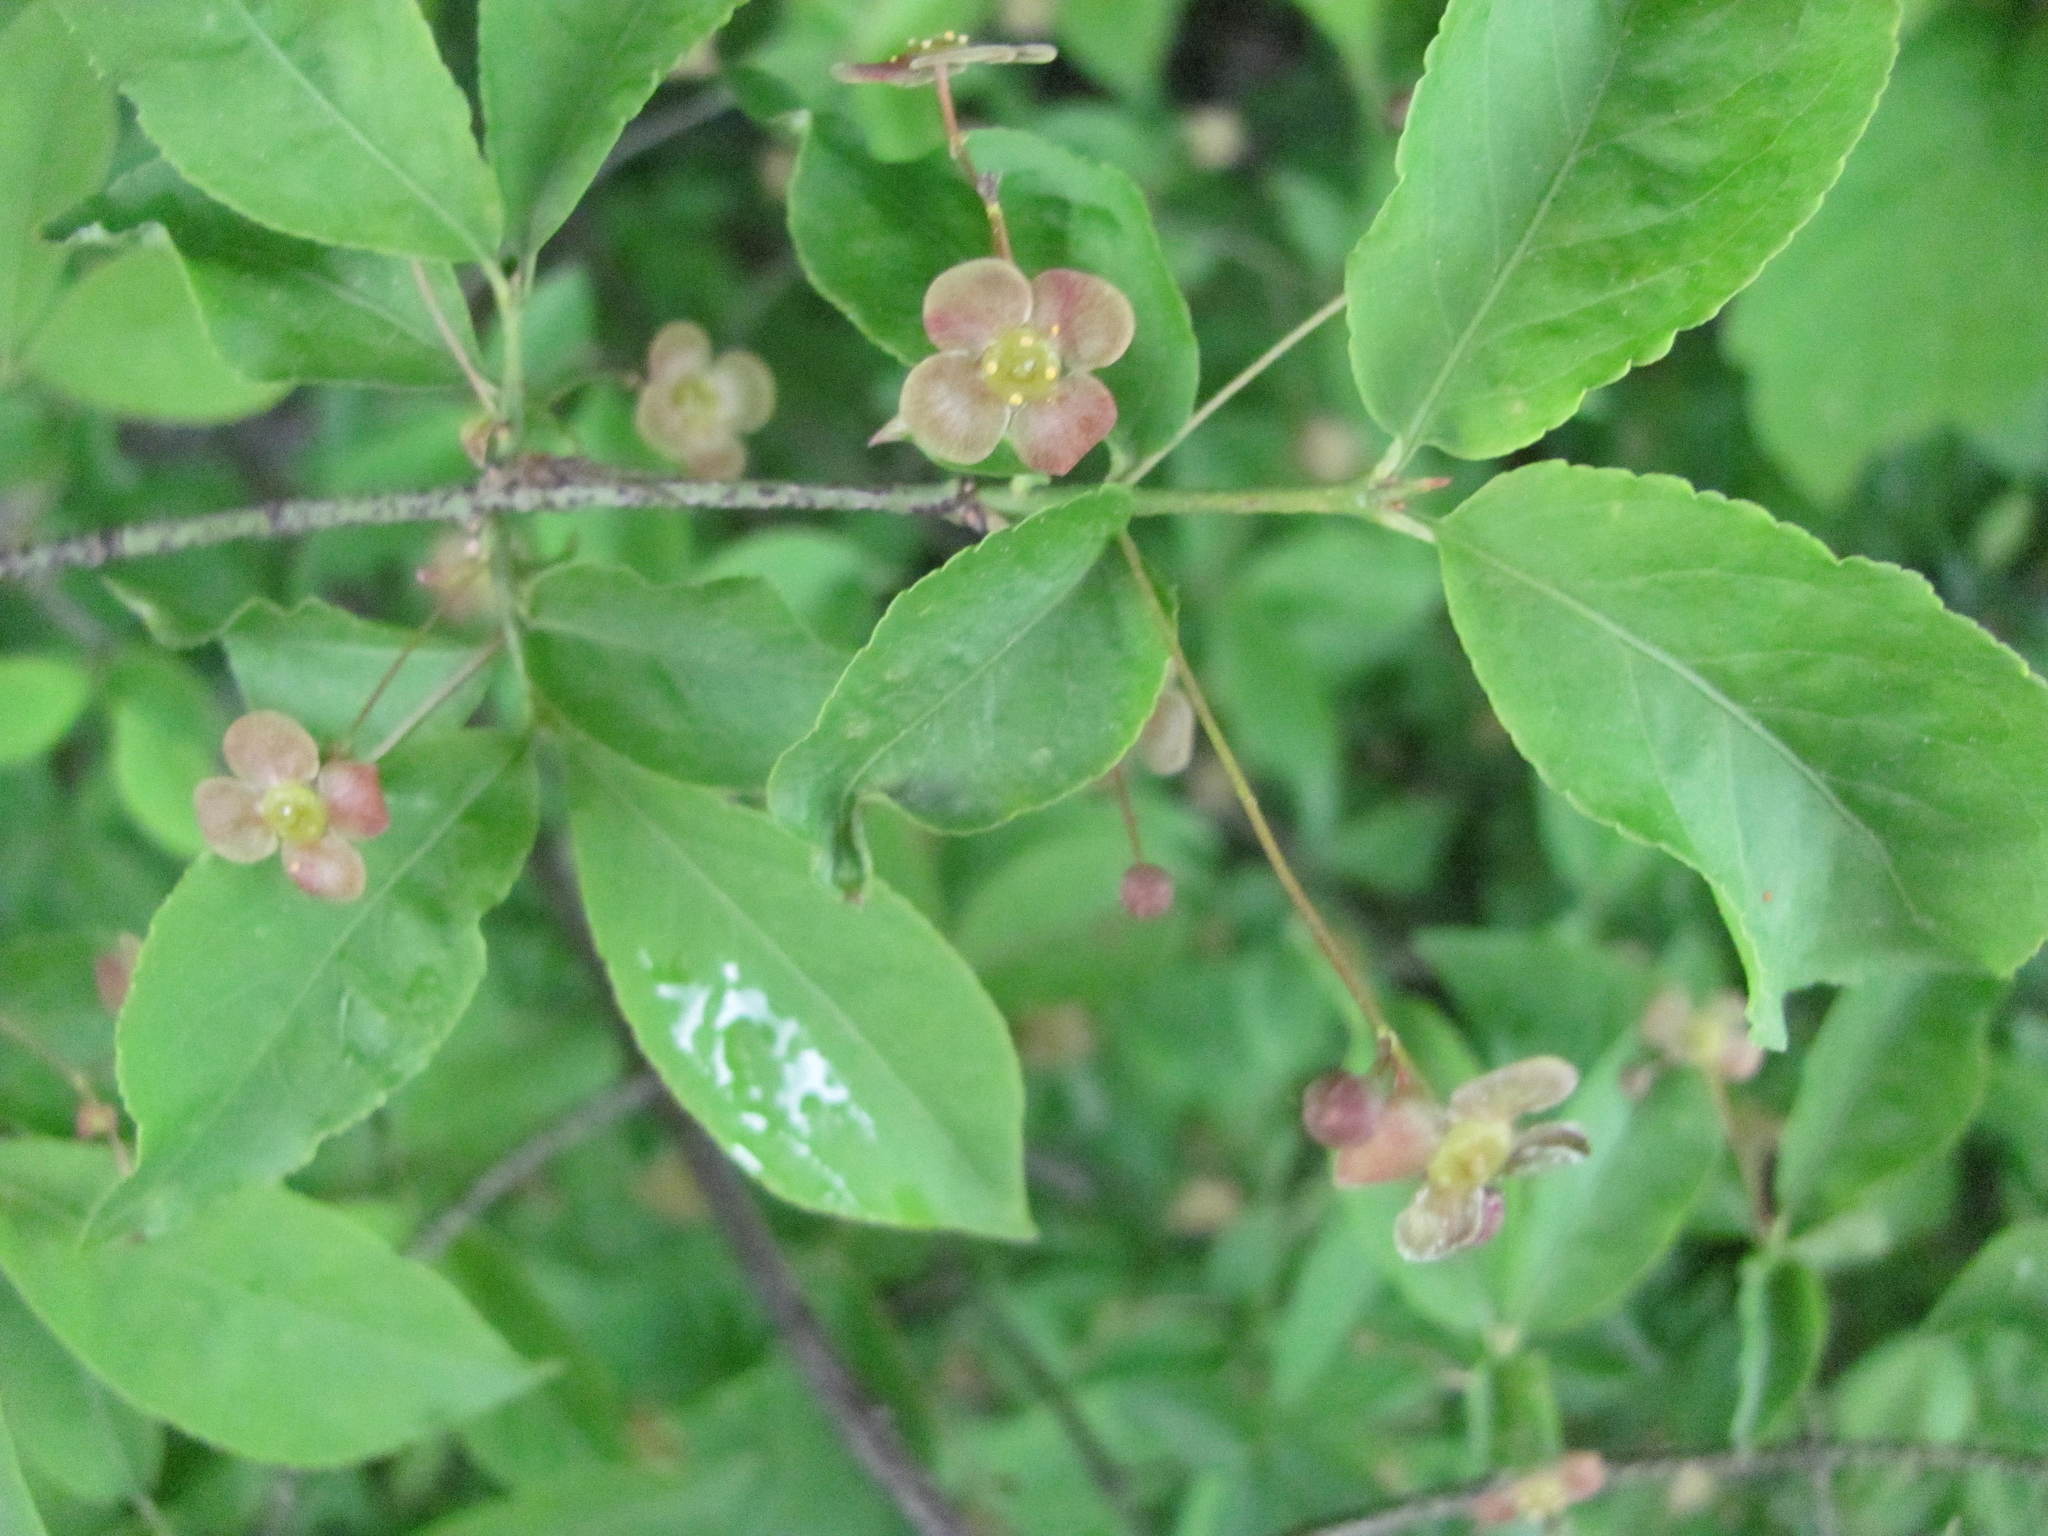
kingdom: Plantae
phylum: Tracheophyta
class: Magnoliopsida
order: Celastrales
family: Celastraceae
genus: Euonymus
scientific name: Euonymus verrucosus
